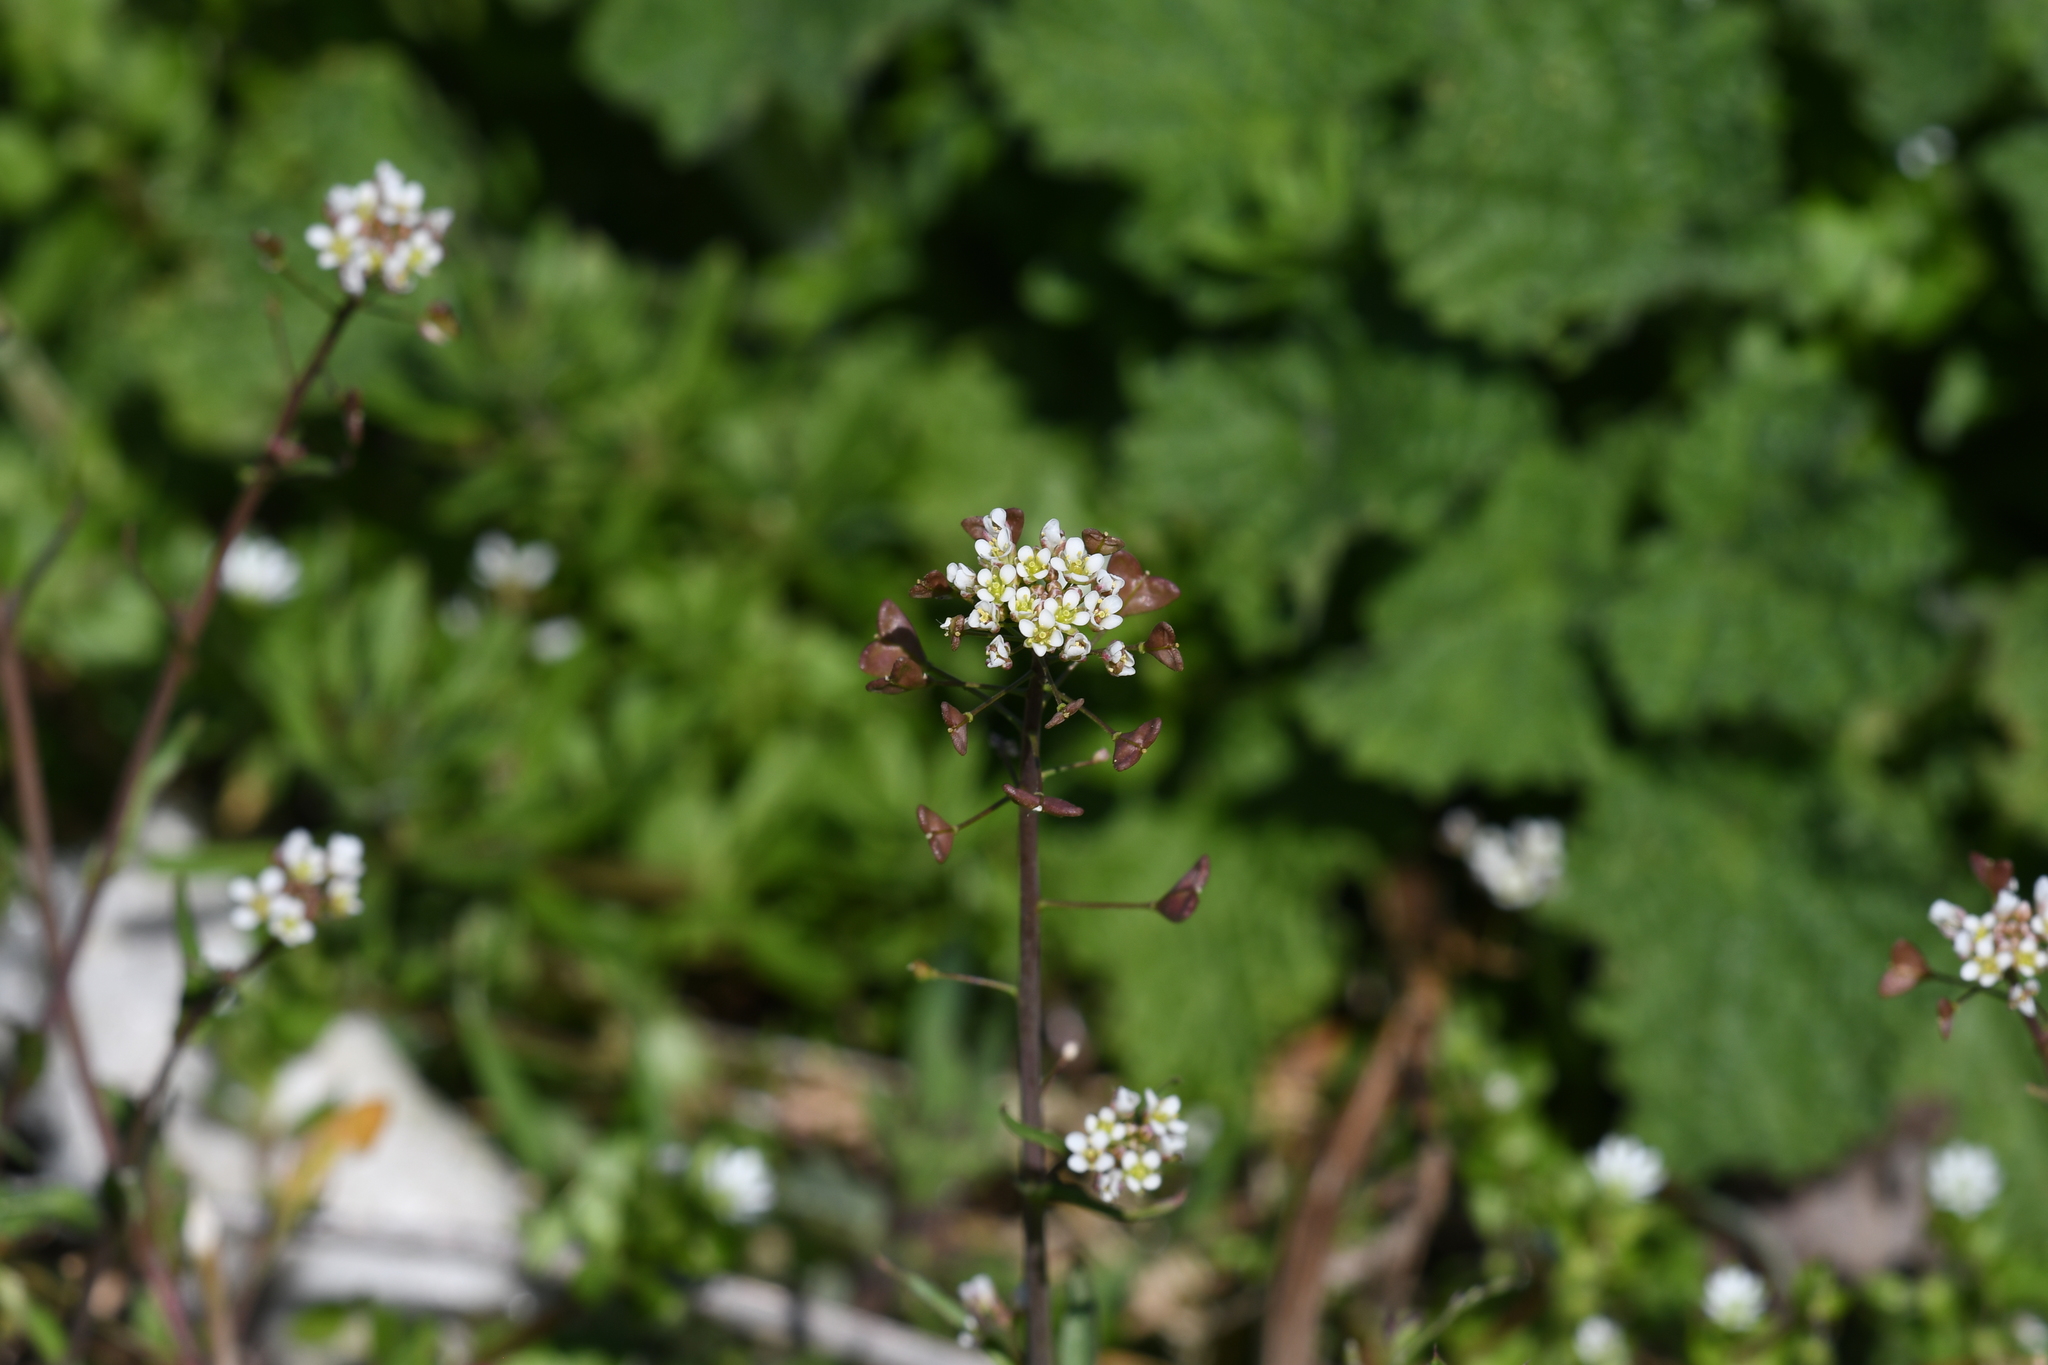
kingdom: Plantae
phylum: Tracheophyta
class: Magnoliopsida
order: Brassicales
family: Brassicaceae
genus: Capsella
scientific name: Capsella bursa-pastoris
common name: Shepherd's purse
